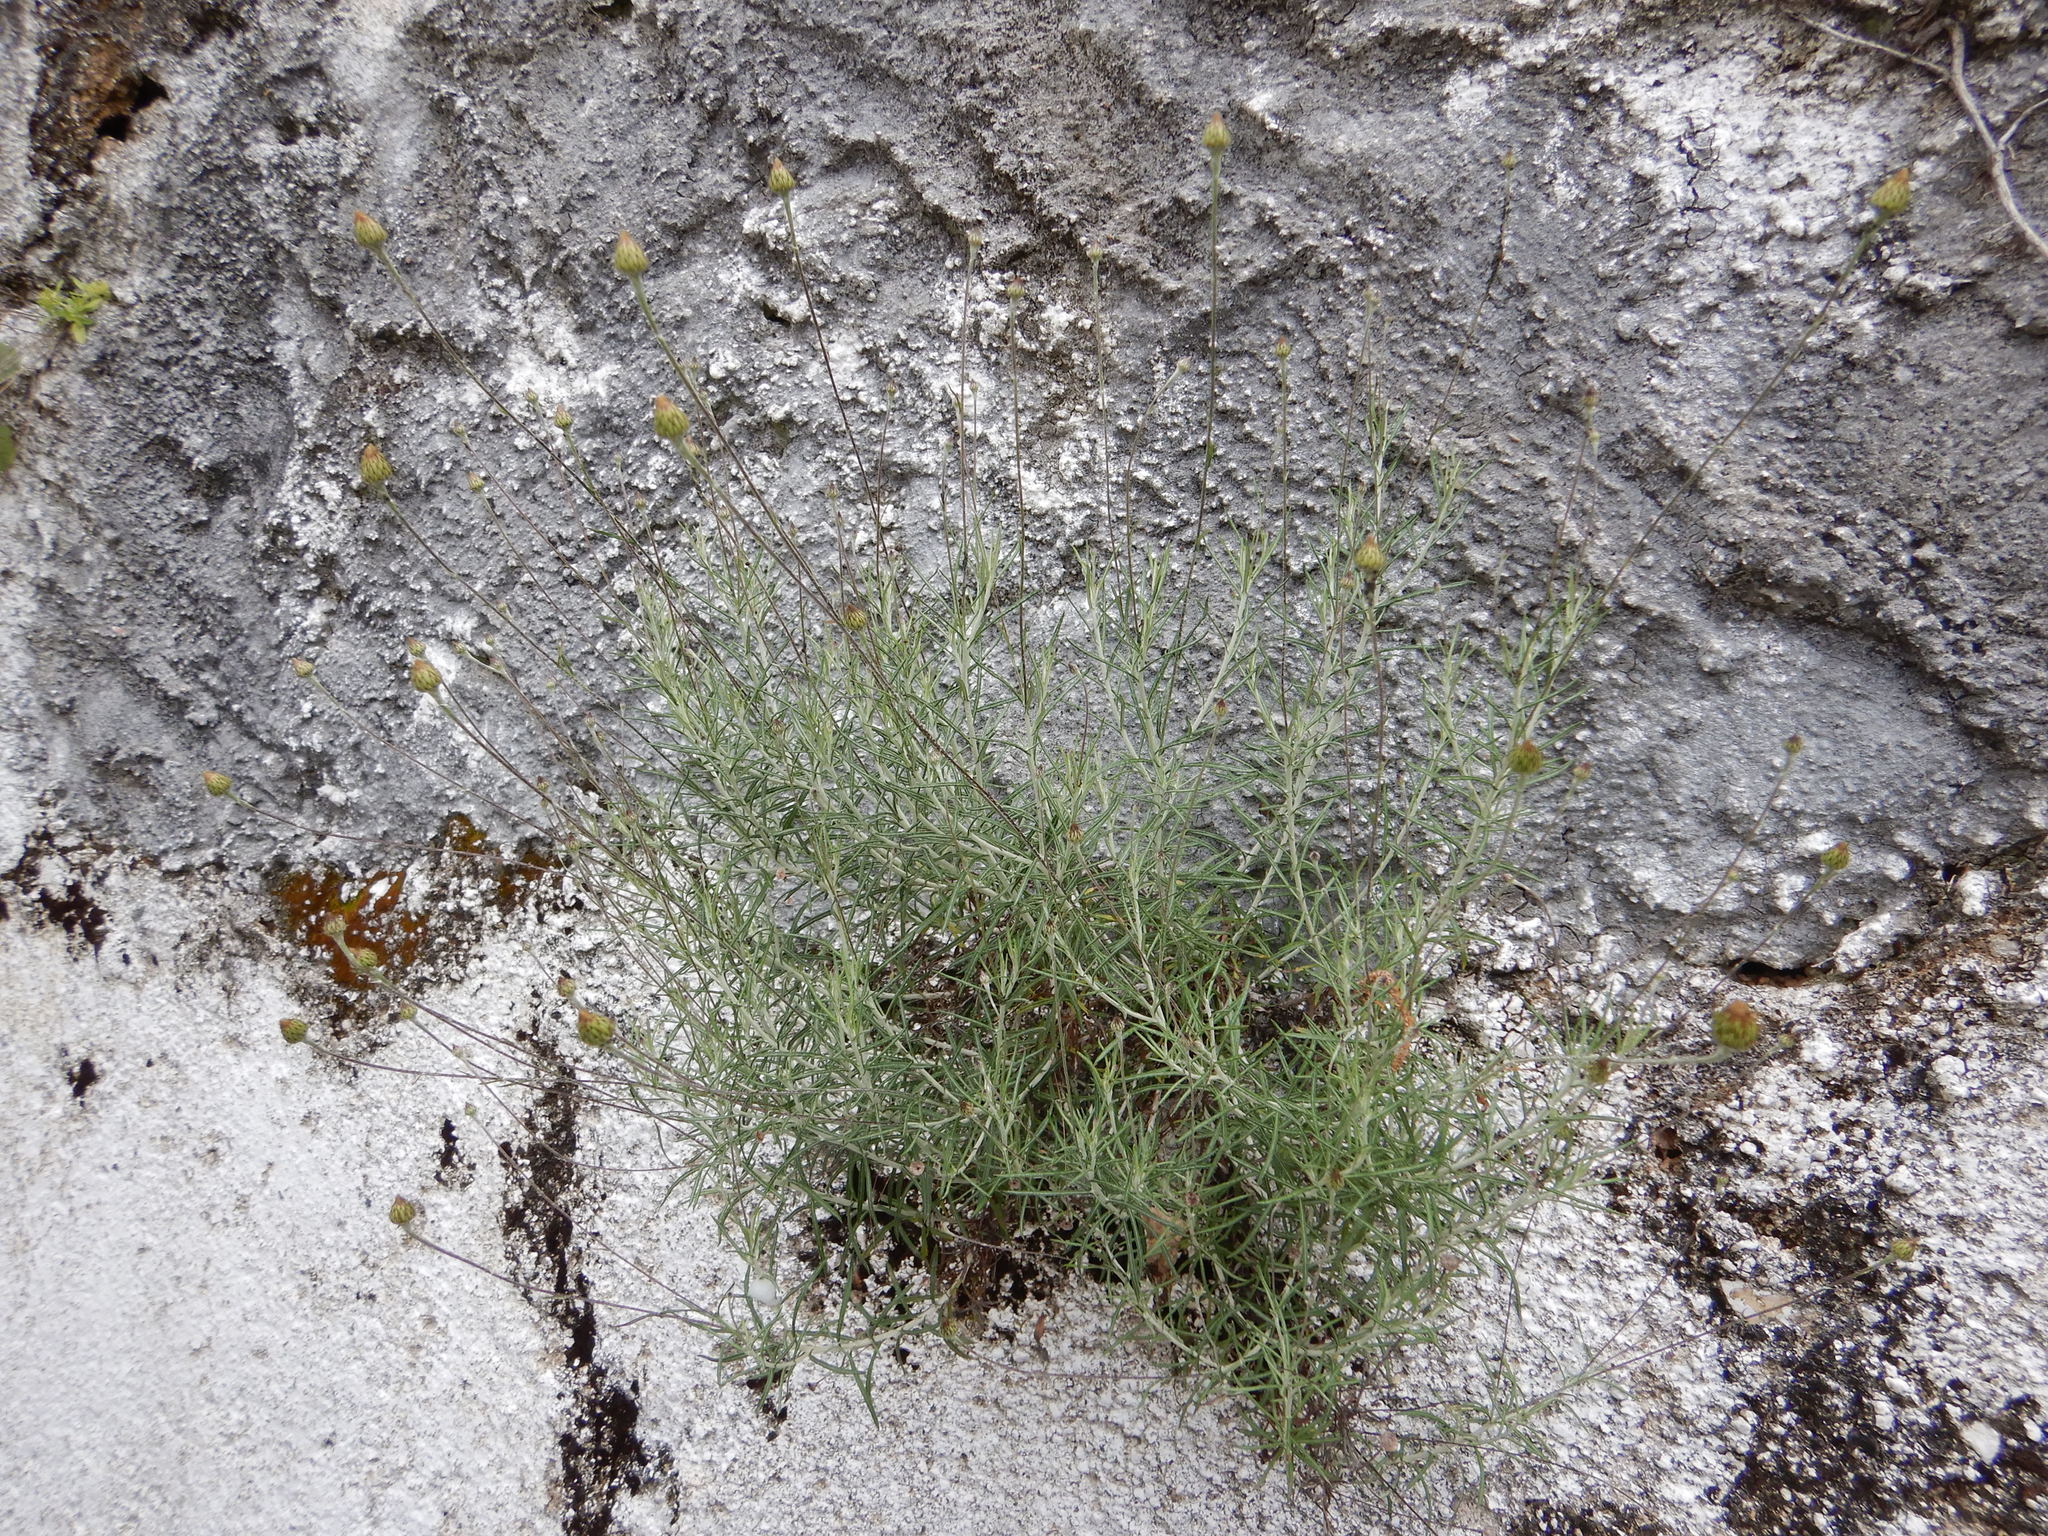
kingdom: Plantae
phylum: Tracheophyta
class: Magnoliopsida
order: Asterales
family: Asteraceae
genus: Phagnalon
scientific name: Phagnalon saxatile
